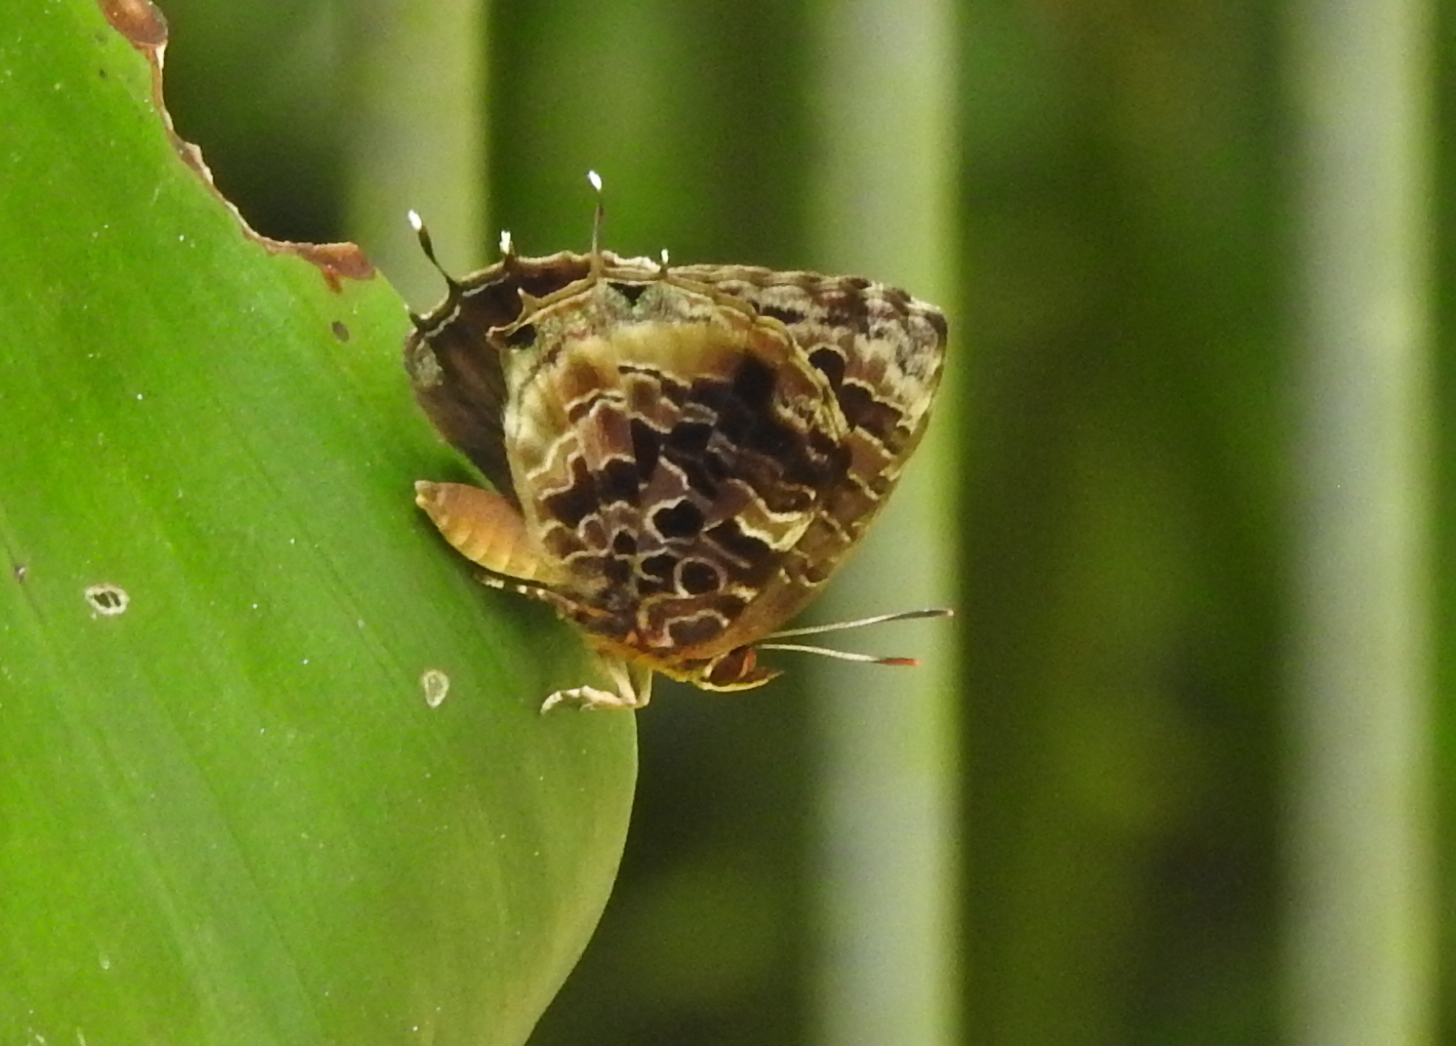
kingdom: Animalia
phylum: Arthropoda
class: Insecta
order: Lepidoptera
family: Lycaenidae
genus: Arhopala
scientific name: Arhopala abseus
